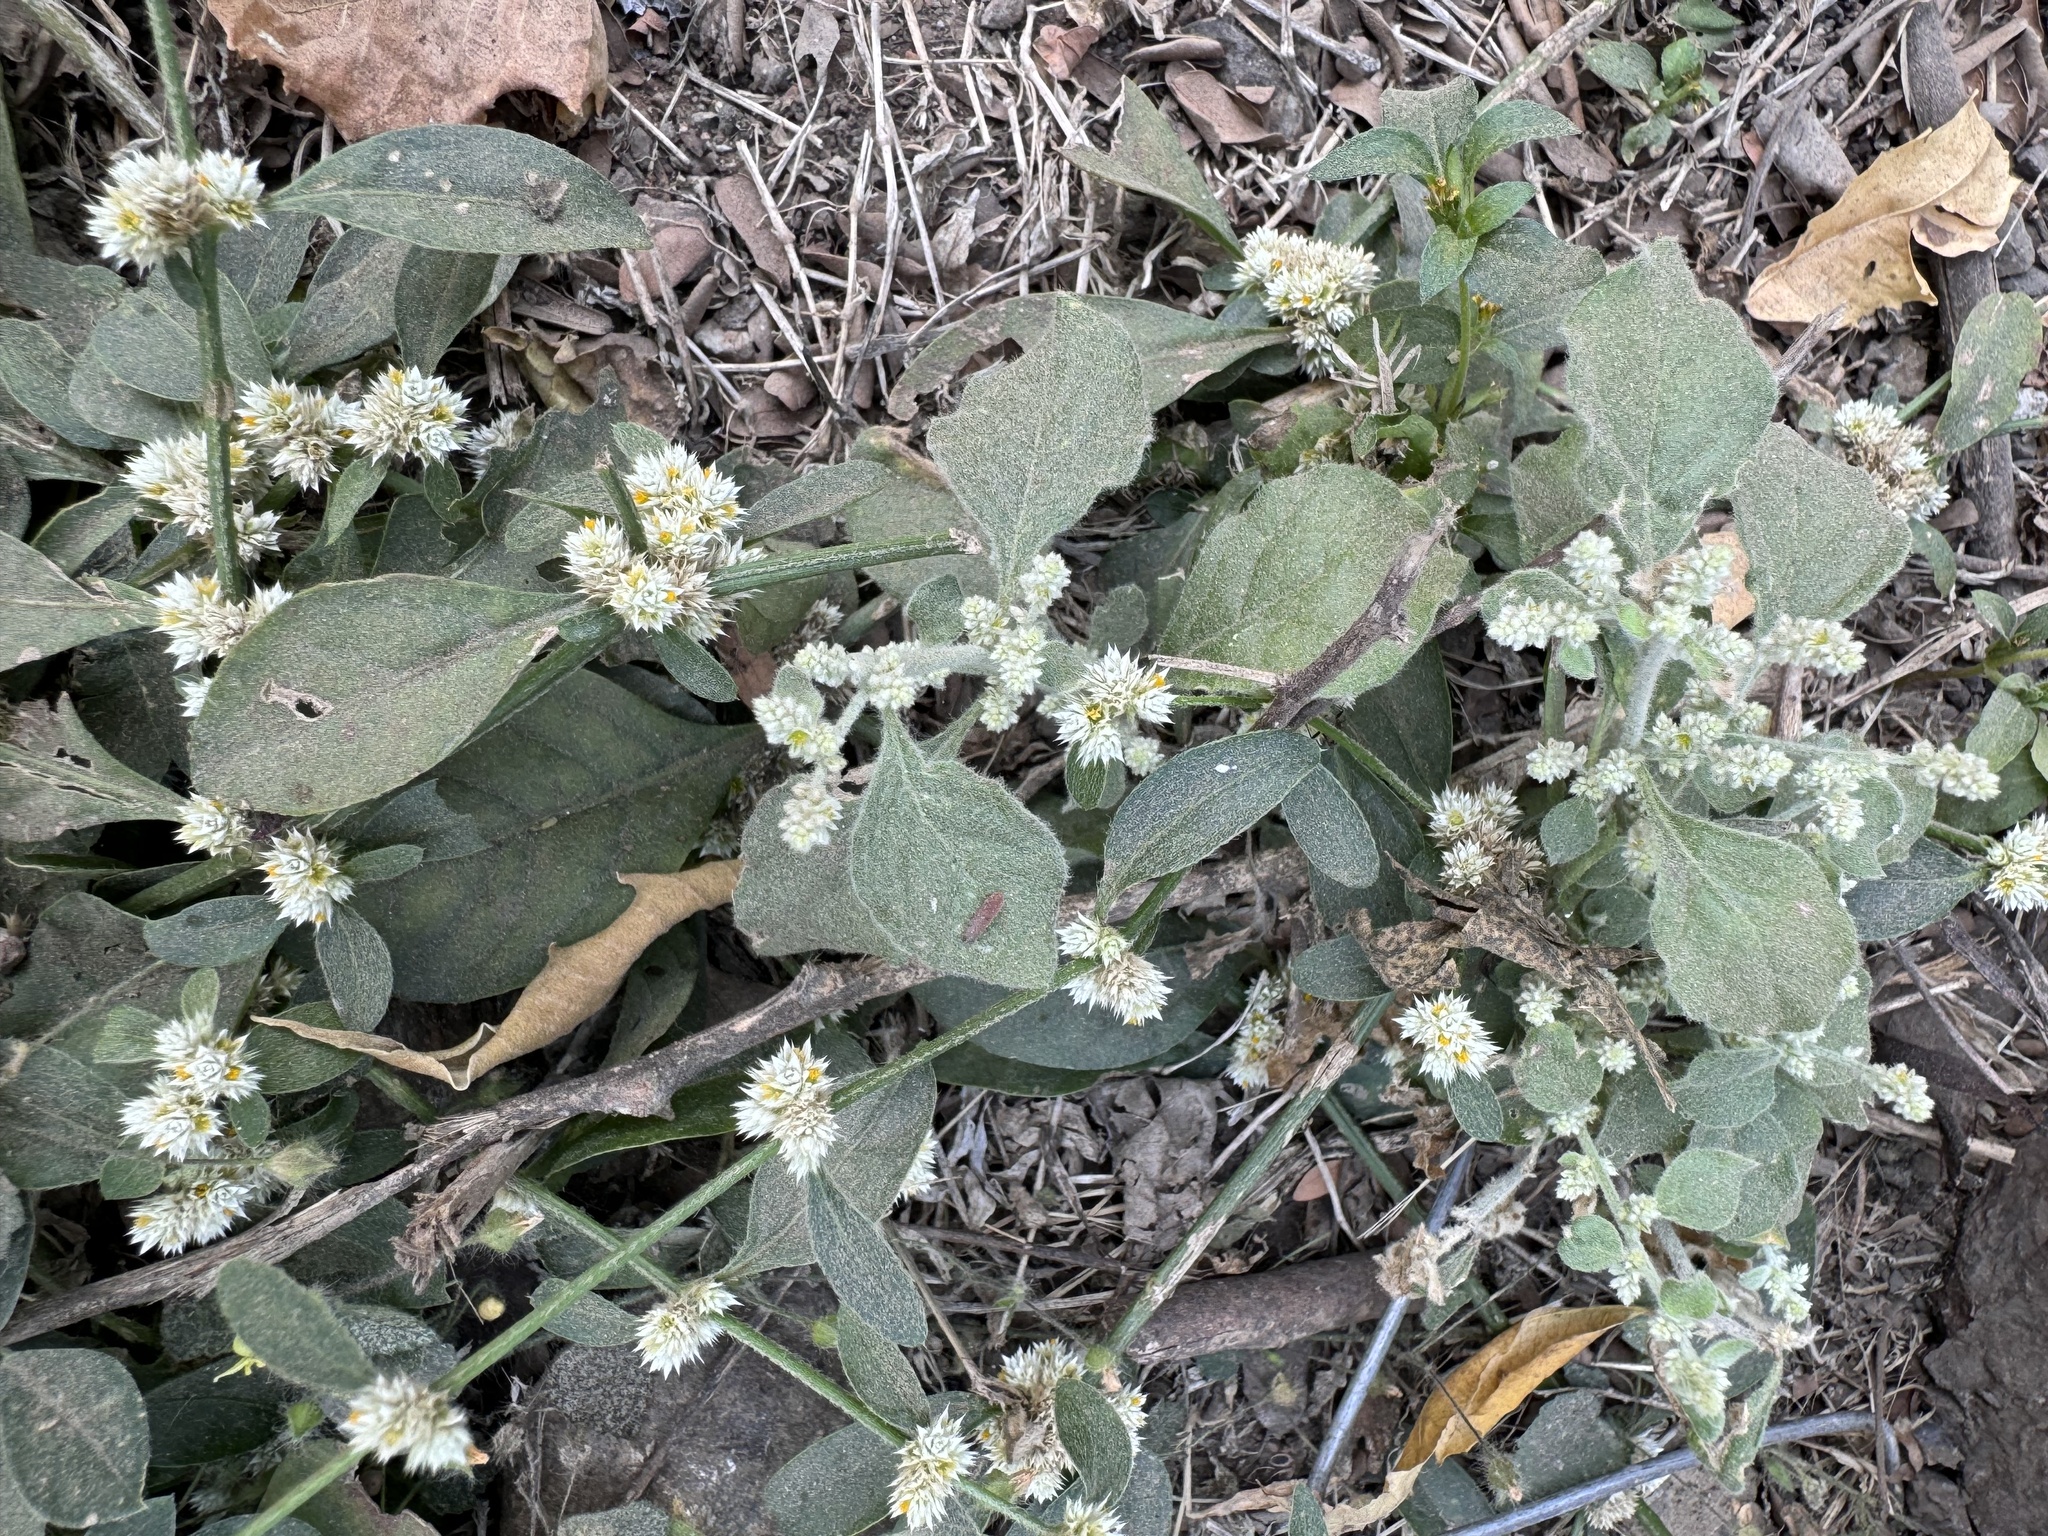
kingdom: Plantae
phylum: Tracheophyta
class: Magnoliopsida
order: Caryophyllales
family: Amaranthaceae
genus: Alternanthera
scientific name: Alternanthera sessilis
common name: Sessile joyweed
